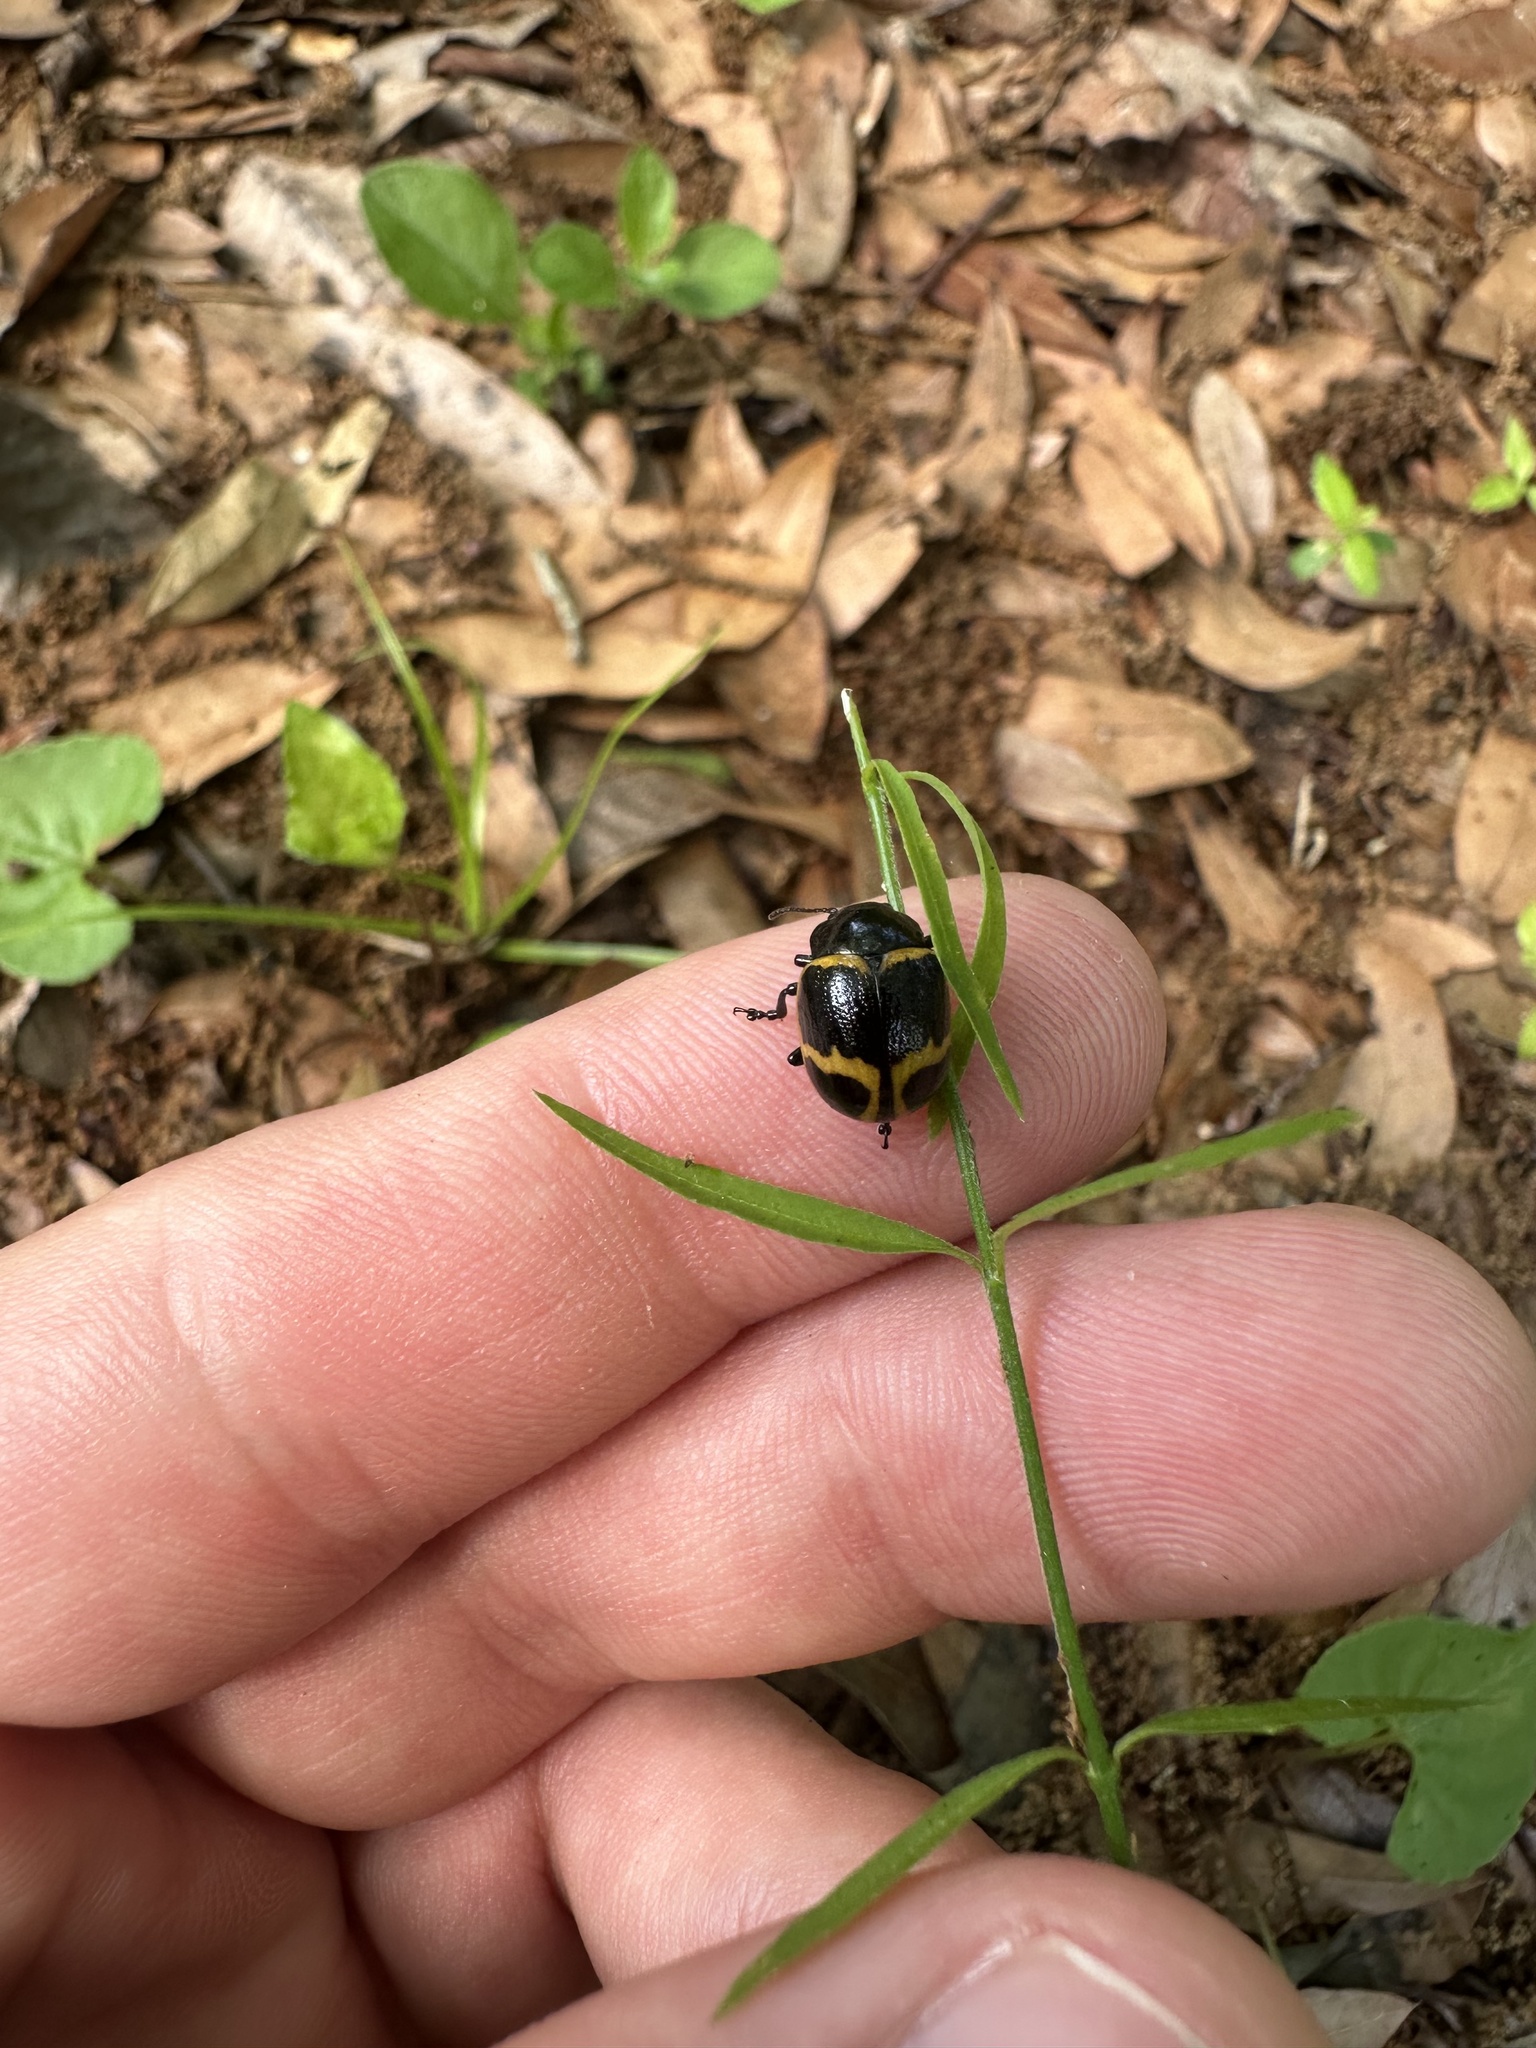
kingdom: Animalia
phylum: Arthropoda
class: Insecta
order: Coleoptera
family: Chrysomelidae
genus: Labidomera
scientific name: Labidomera clivicollis
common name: Swamp milkweed leaf beetle
